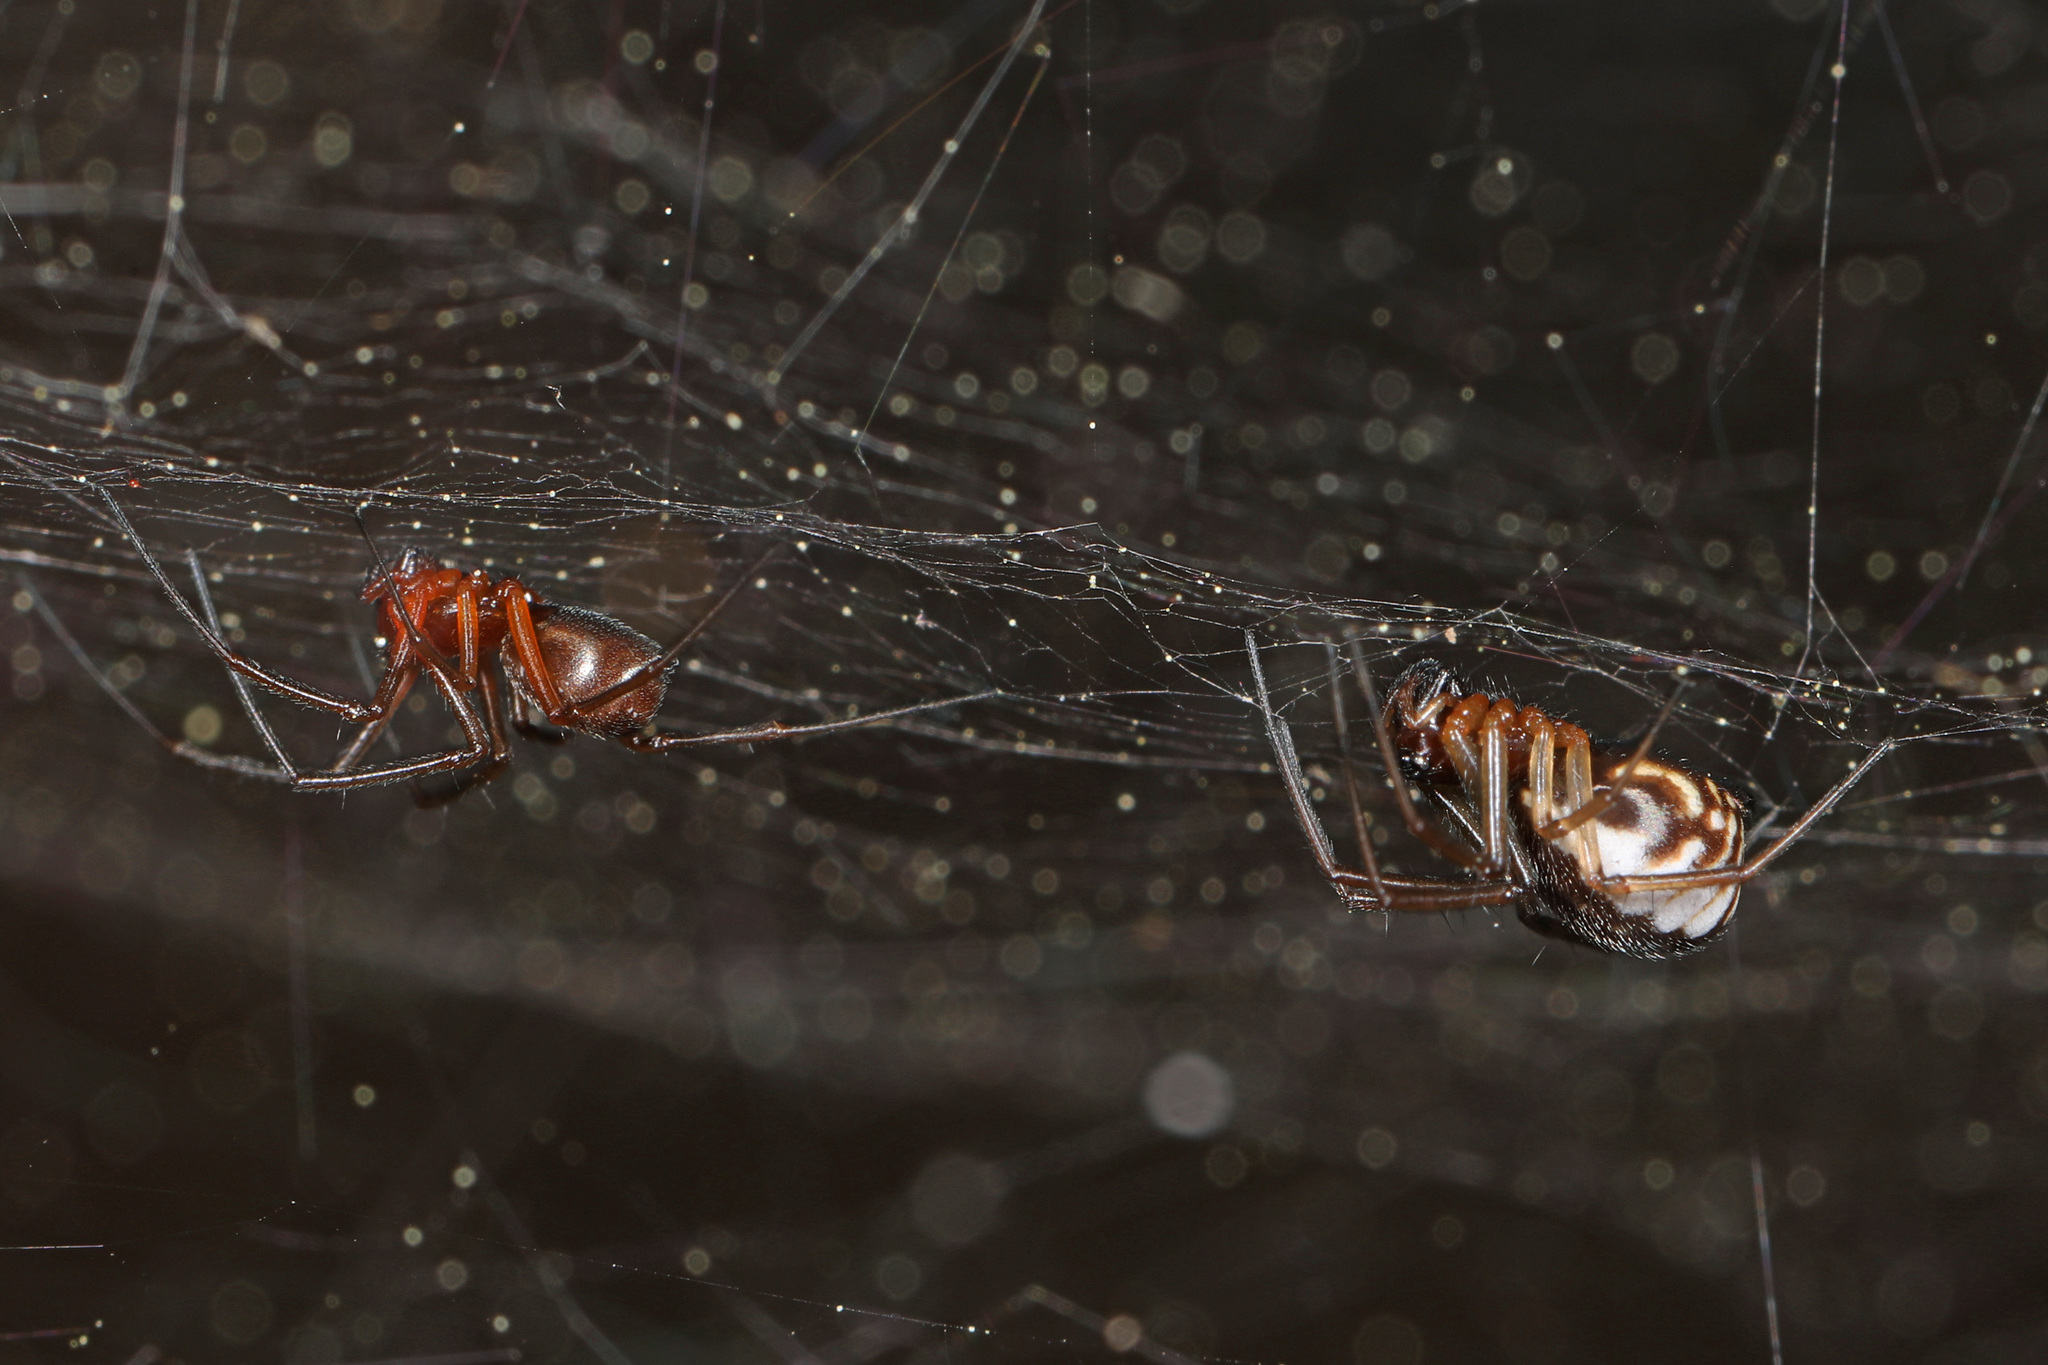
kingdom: Animalia
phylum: Arthropoda
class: Arachnida
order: Araneae
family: Linyphiidae
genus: Frontinella
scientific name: Frontinella pyramitela
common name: Bowl-and-doily spider
